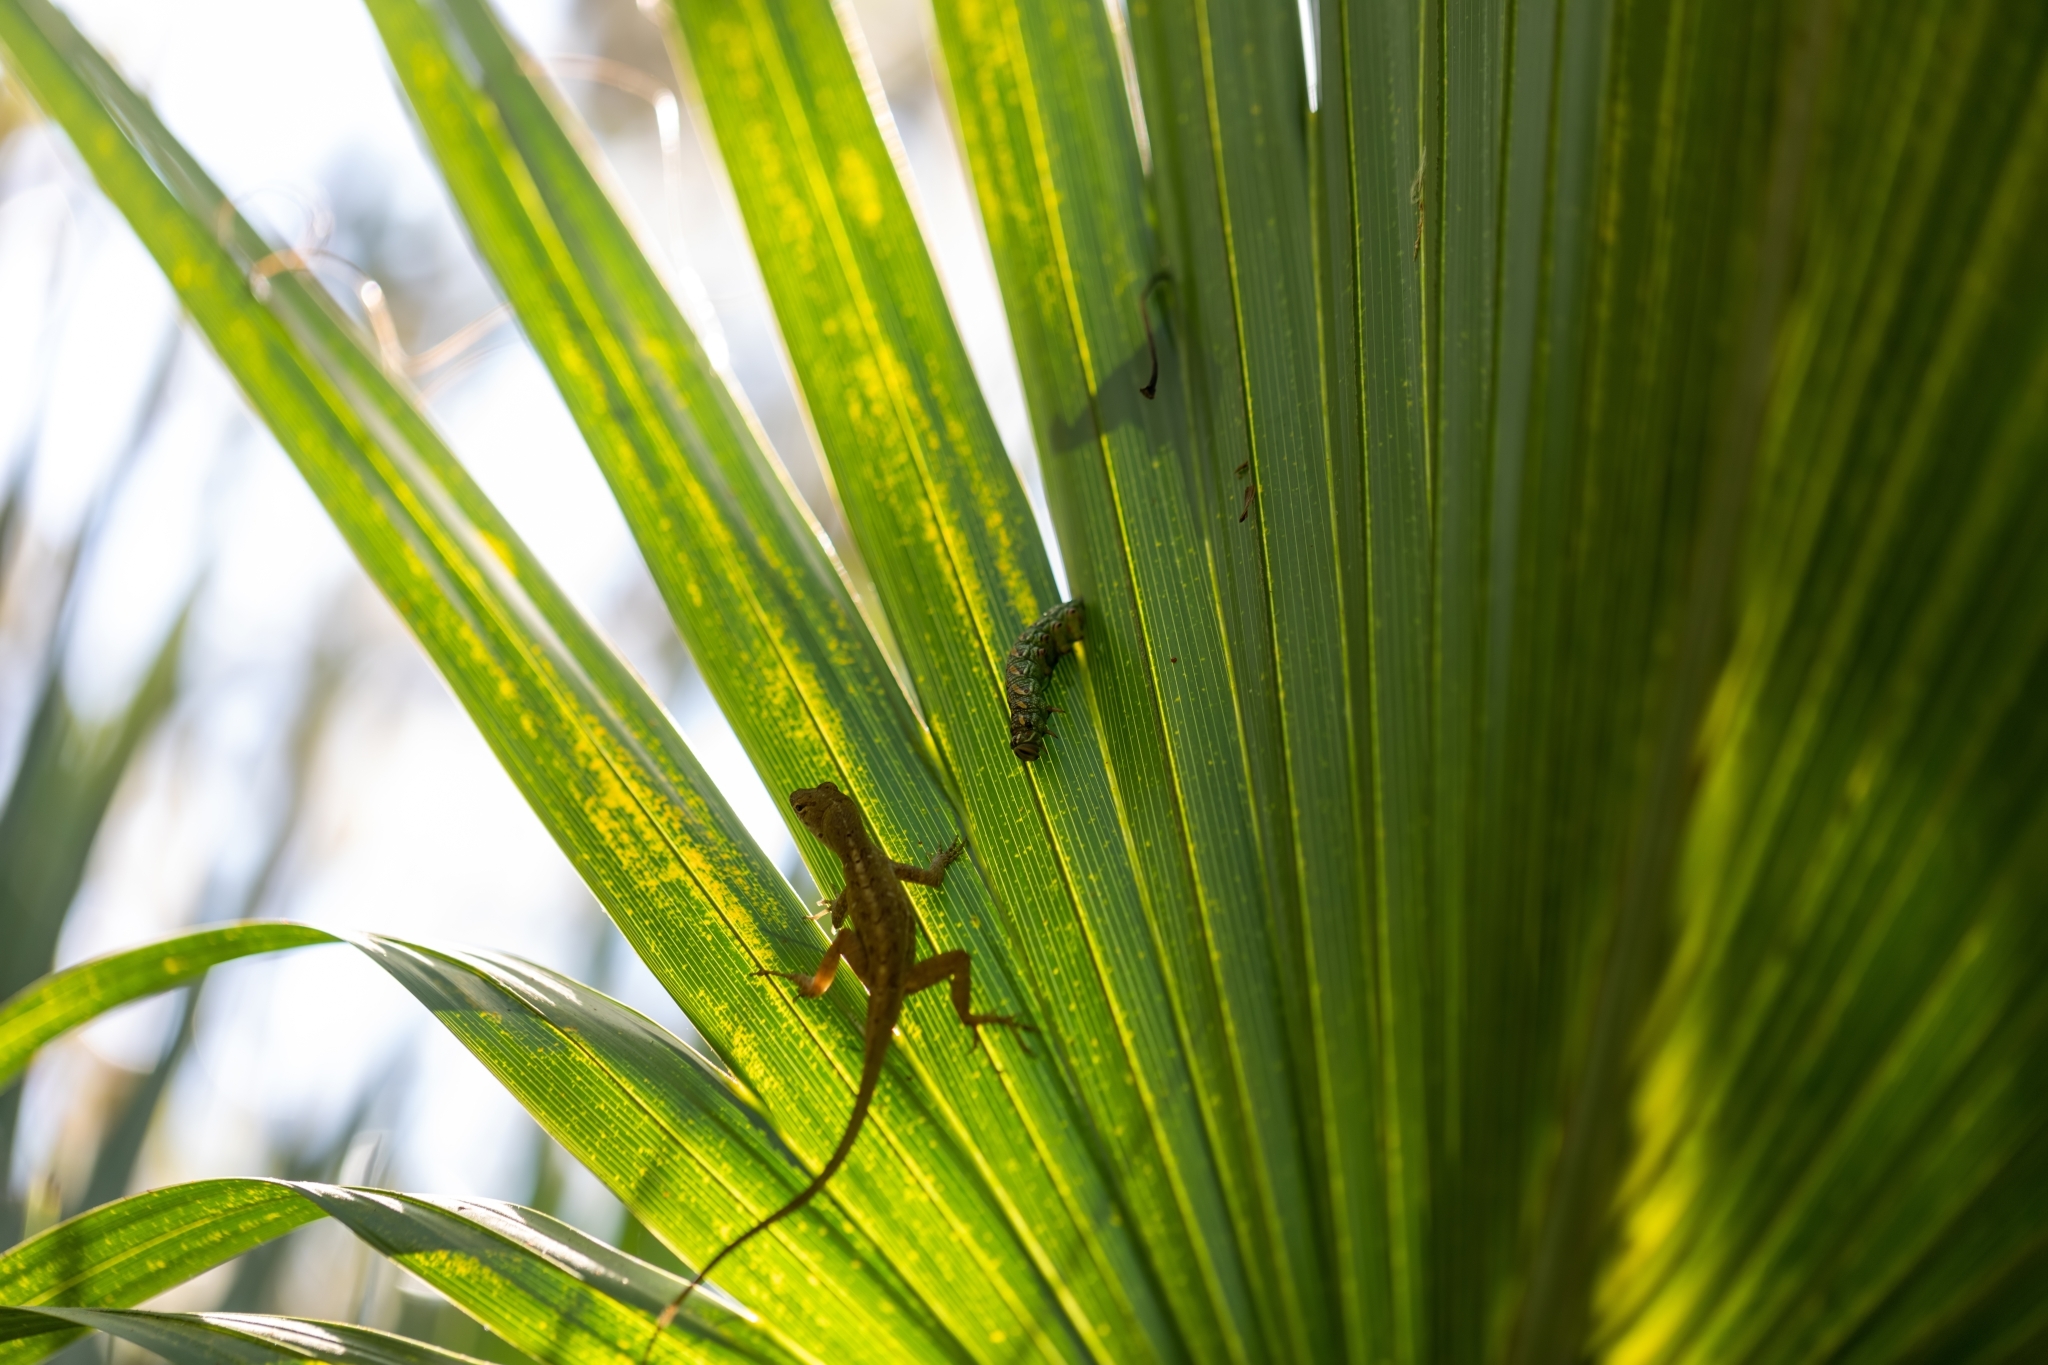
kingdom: Animalia
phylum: Arthropoda
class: Insecta
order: Lepidoptera
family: Sphingidae
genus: Isoparce
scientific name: Isoparce cupressi
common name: Cypress sphinx
